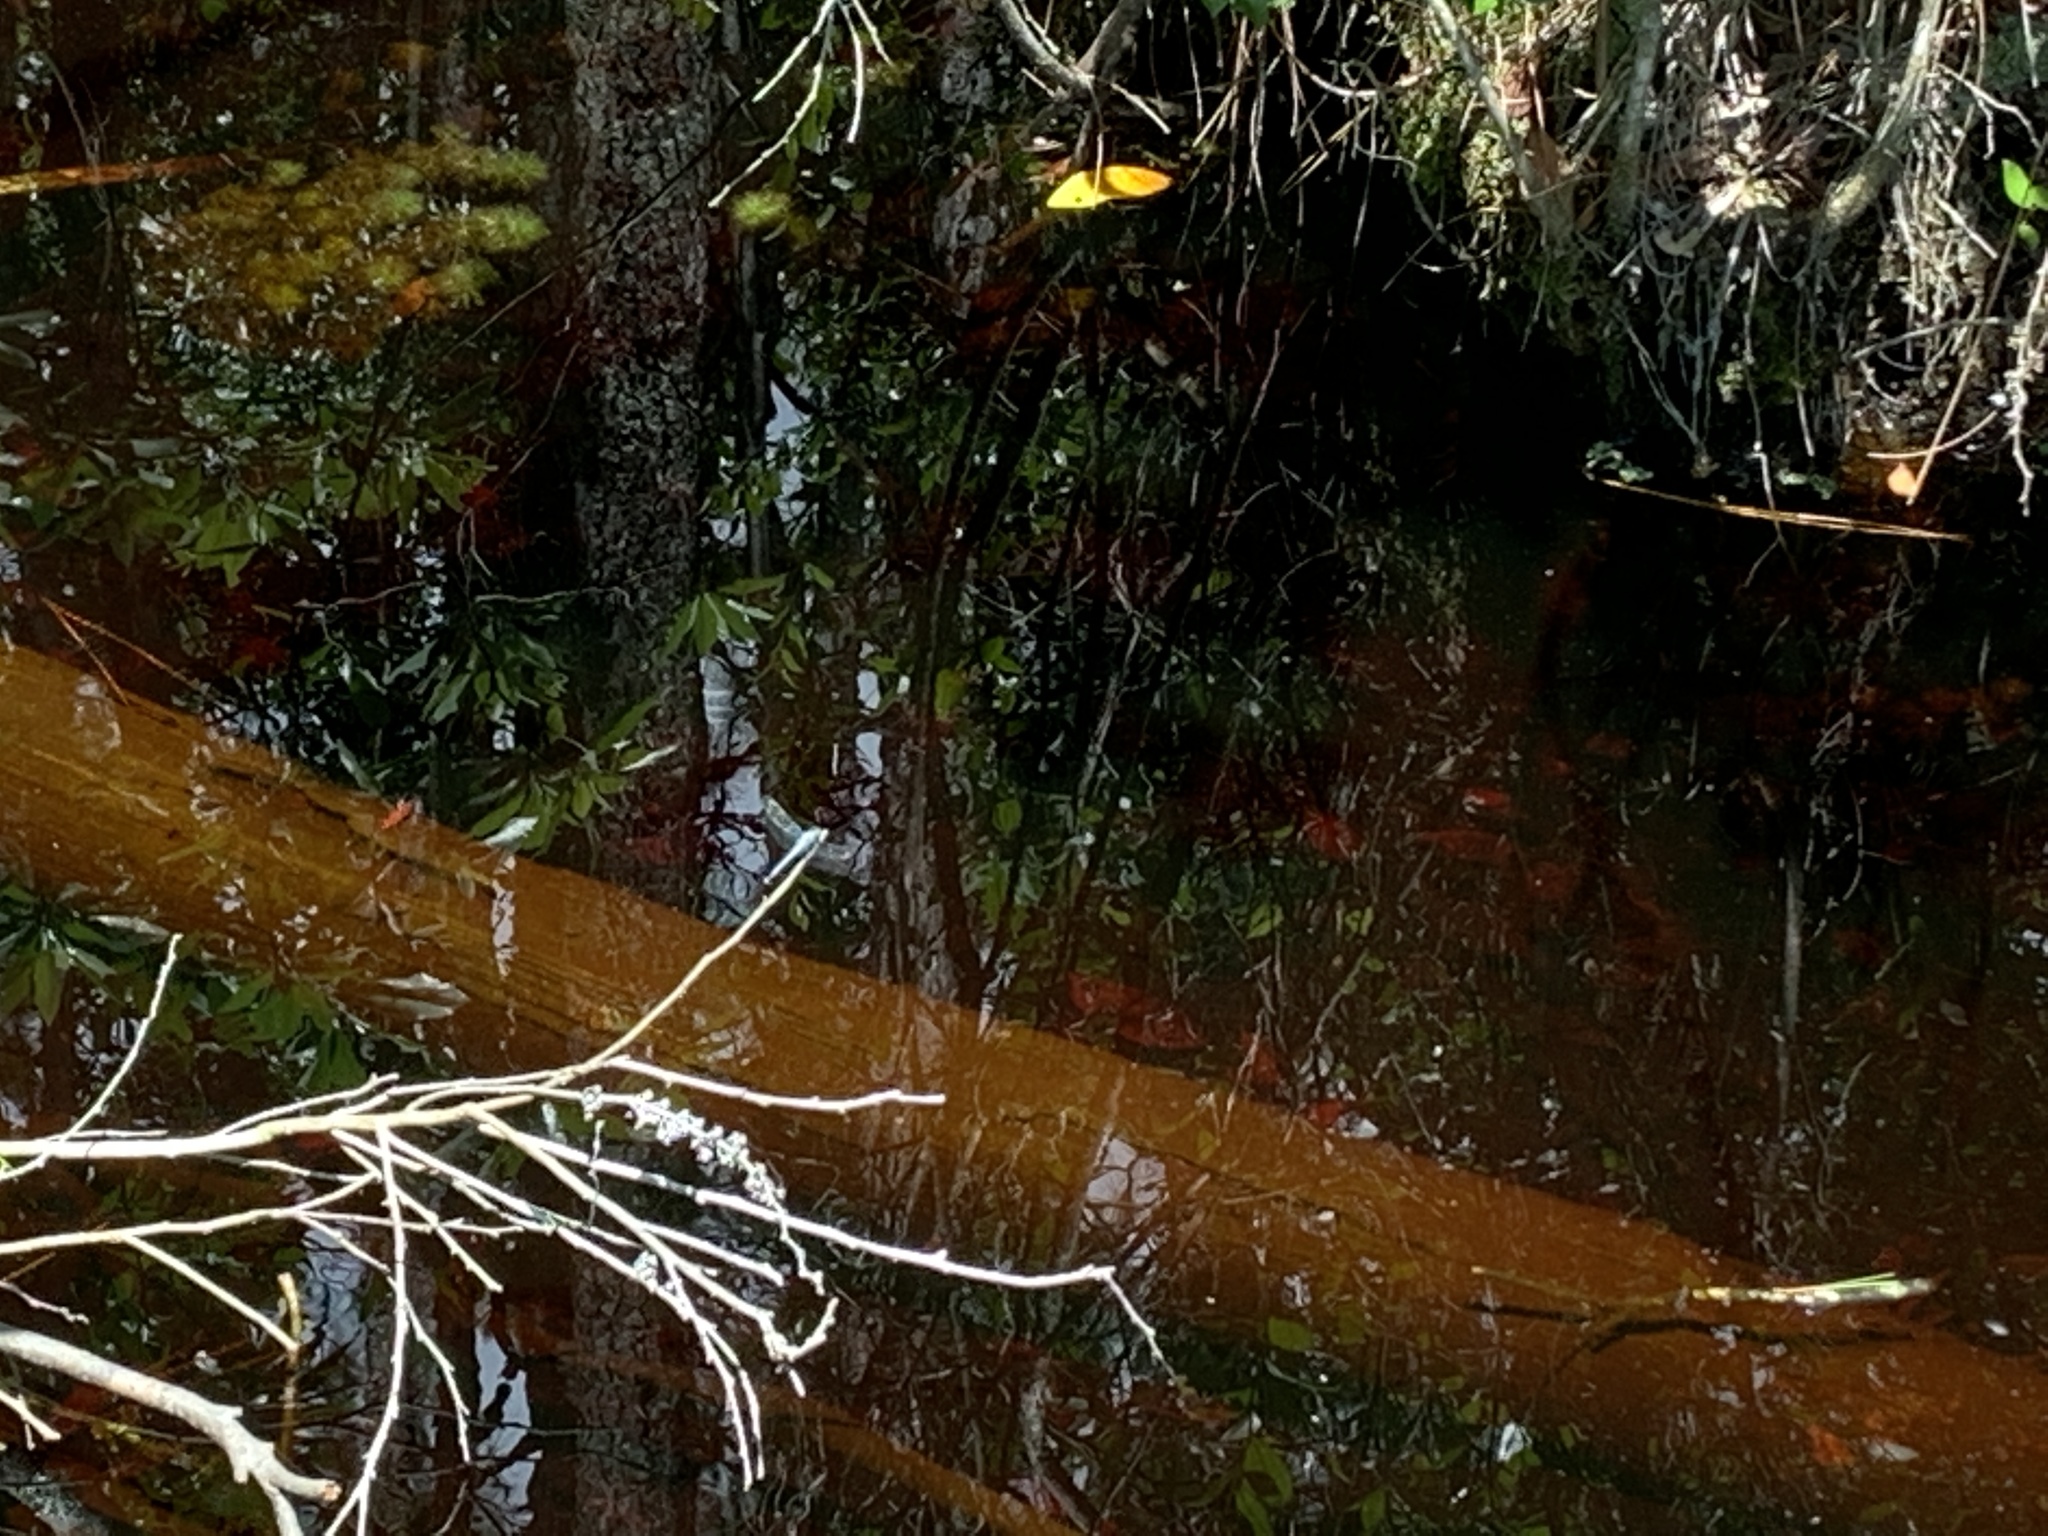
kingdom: Animalia
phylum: Arthropoda
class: Insecta
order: Odonata
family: Libellulidae
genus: Erythemis
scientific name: Erythemis simplicicollis
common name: Eastern pondhawk
